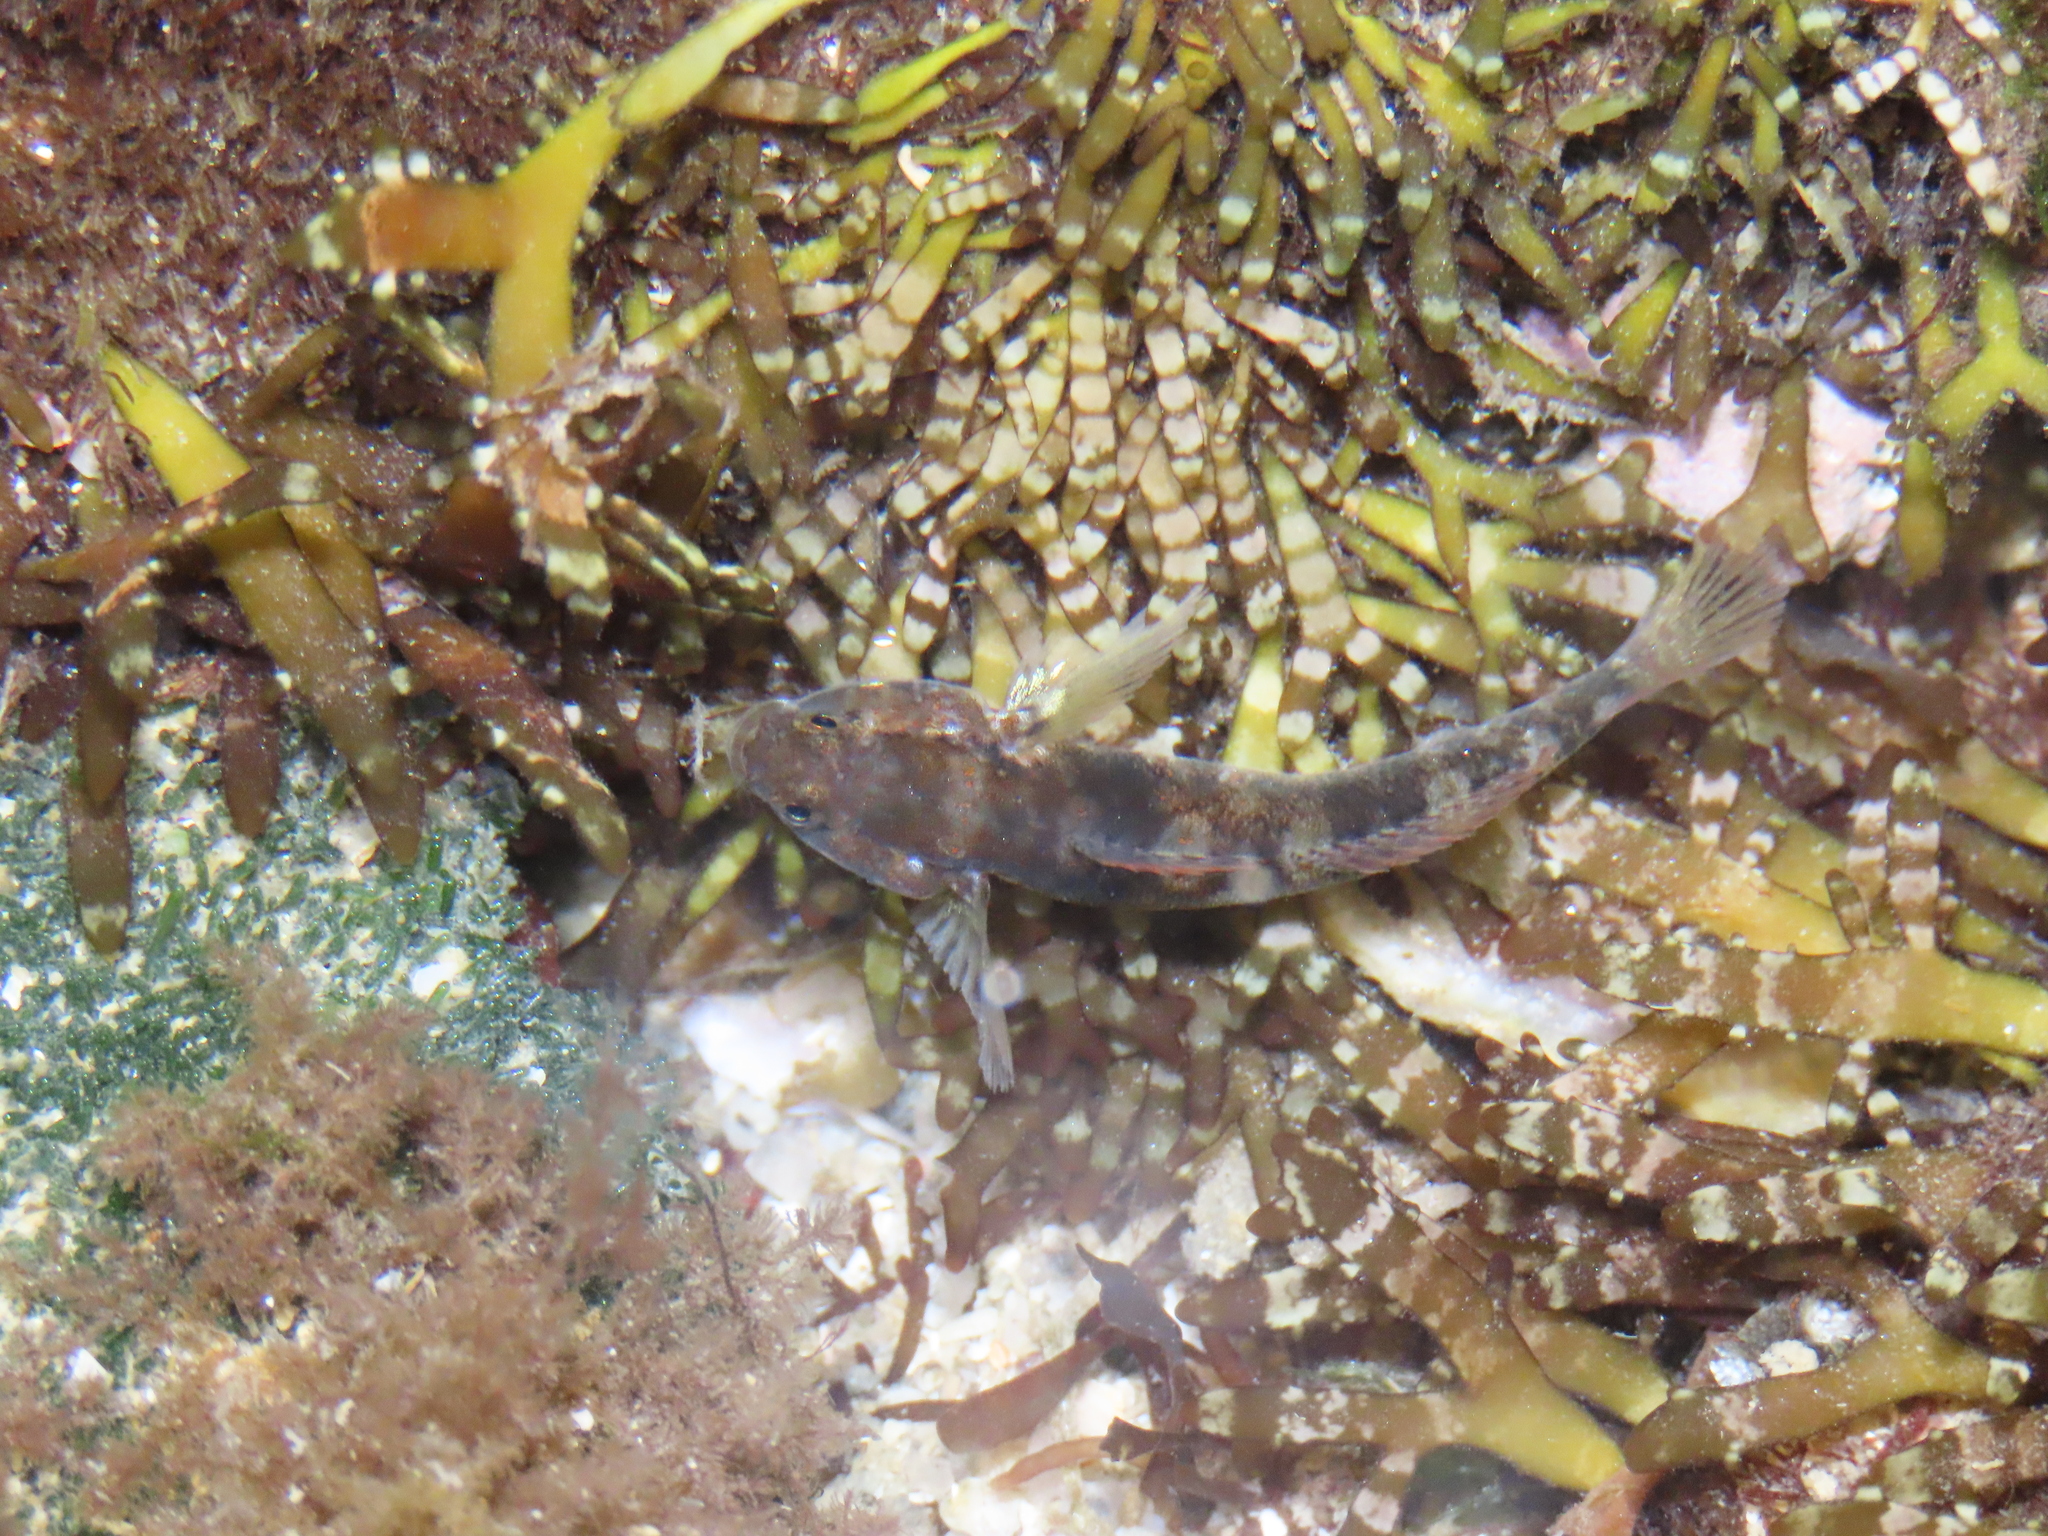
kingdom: Animalia
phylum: Chordata
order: Perciformes
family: Gobiidae
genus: Gillichthys
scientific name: Gillichthys seta
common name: Shortjaw mudsucker
